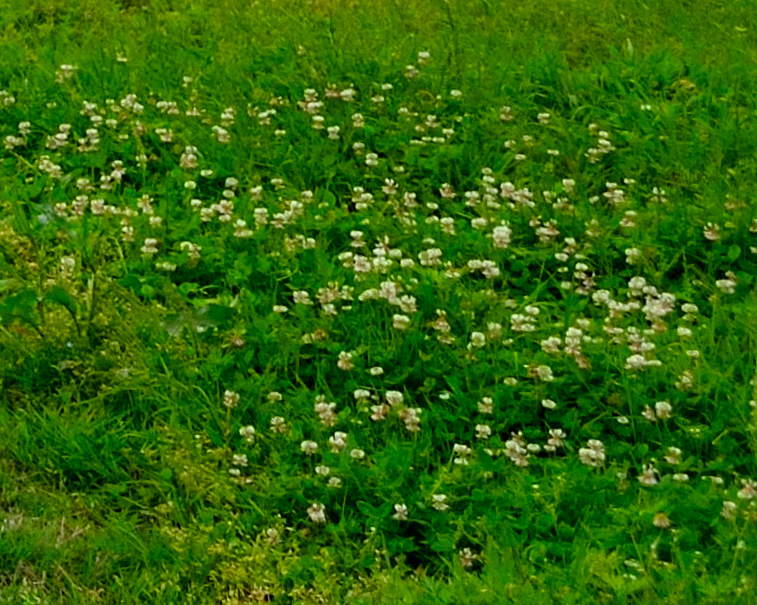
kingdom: Plantae
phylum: Tracheophyta
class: Magnoliopsida
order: Fabales
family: Fabaceae
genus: Trifolium
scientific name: Trifolium repens
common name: White clover
